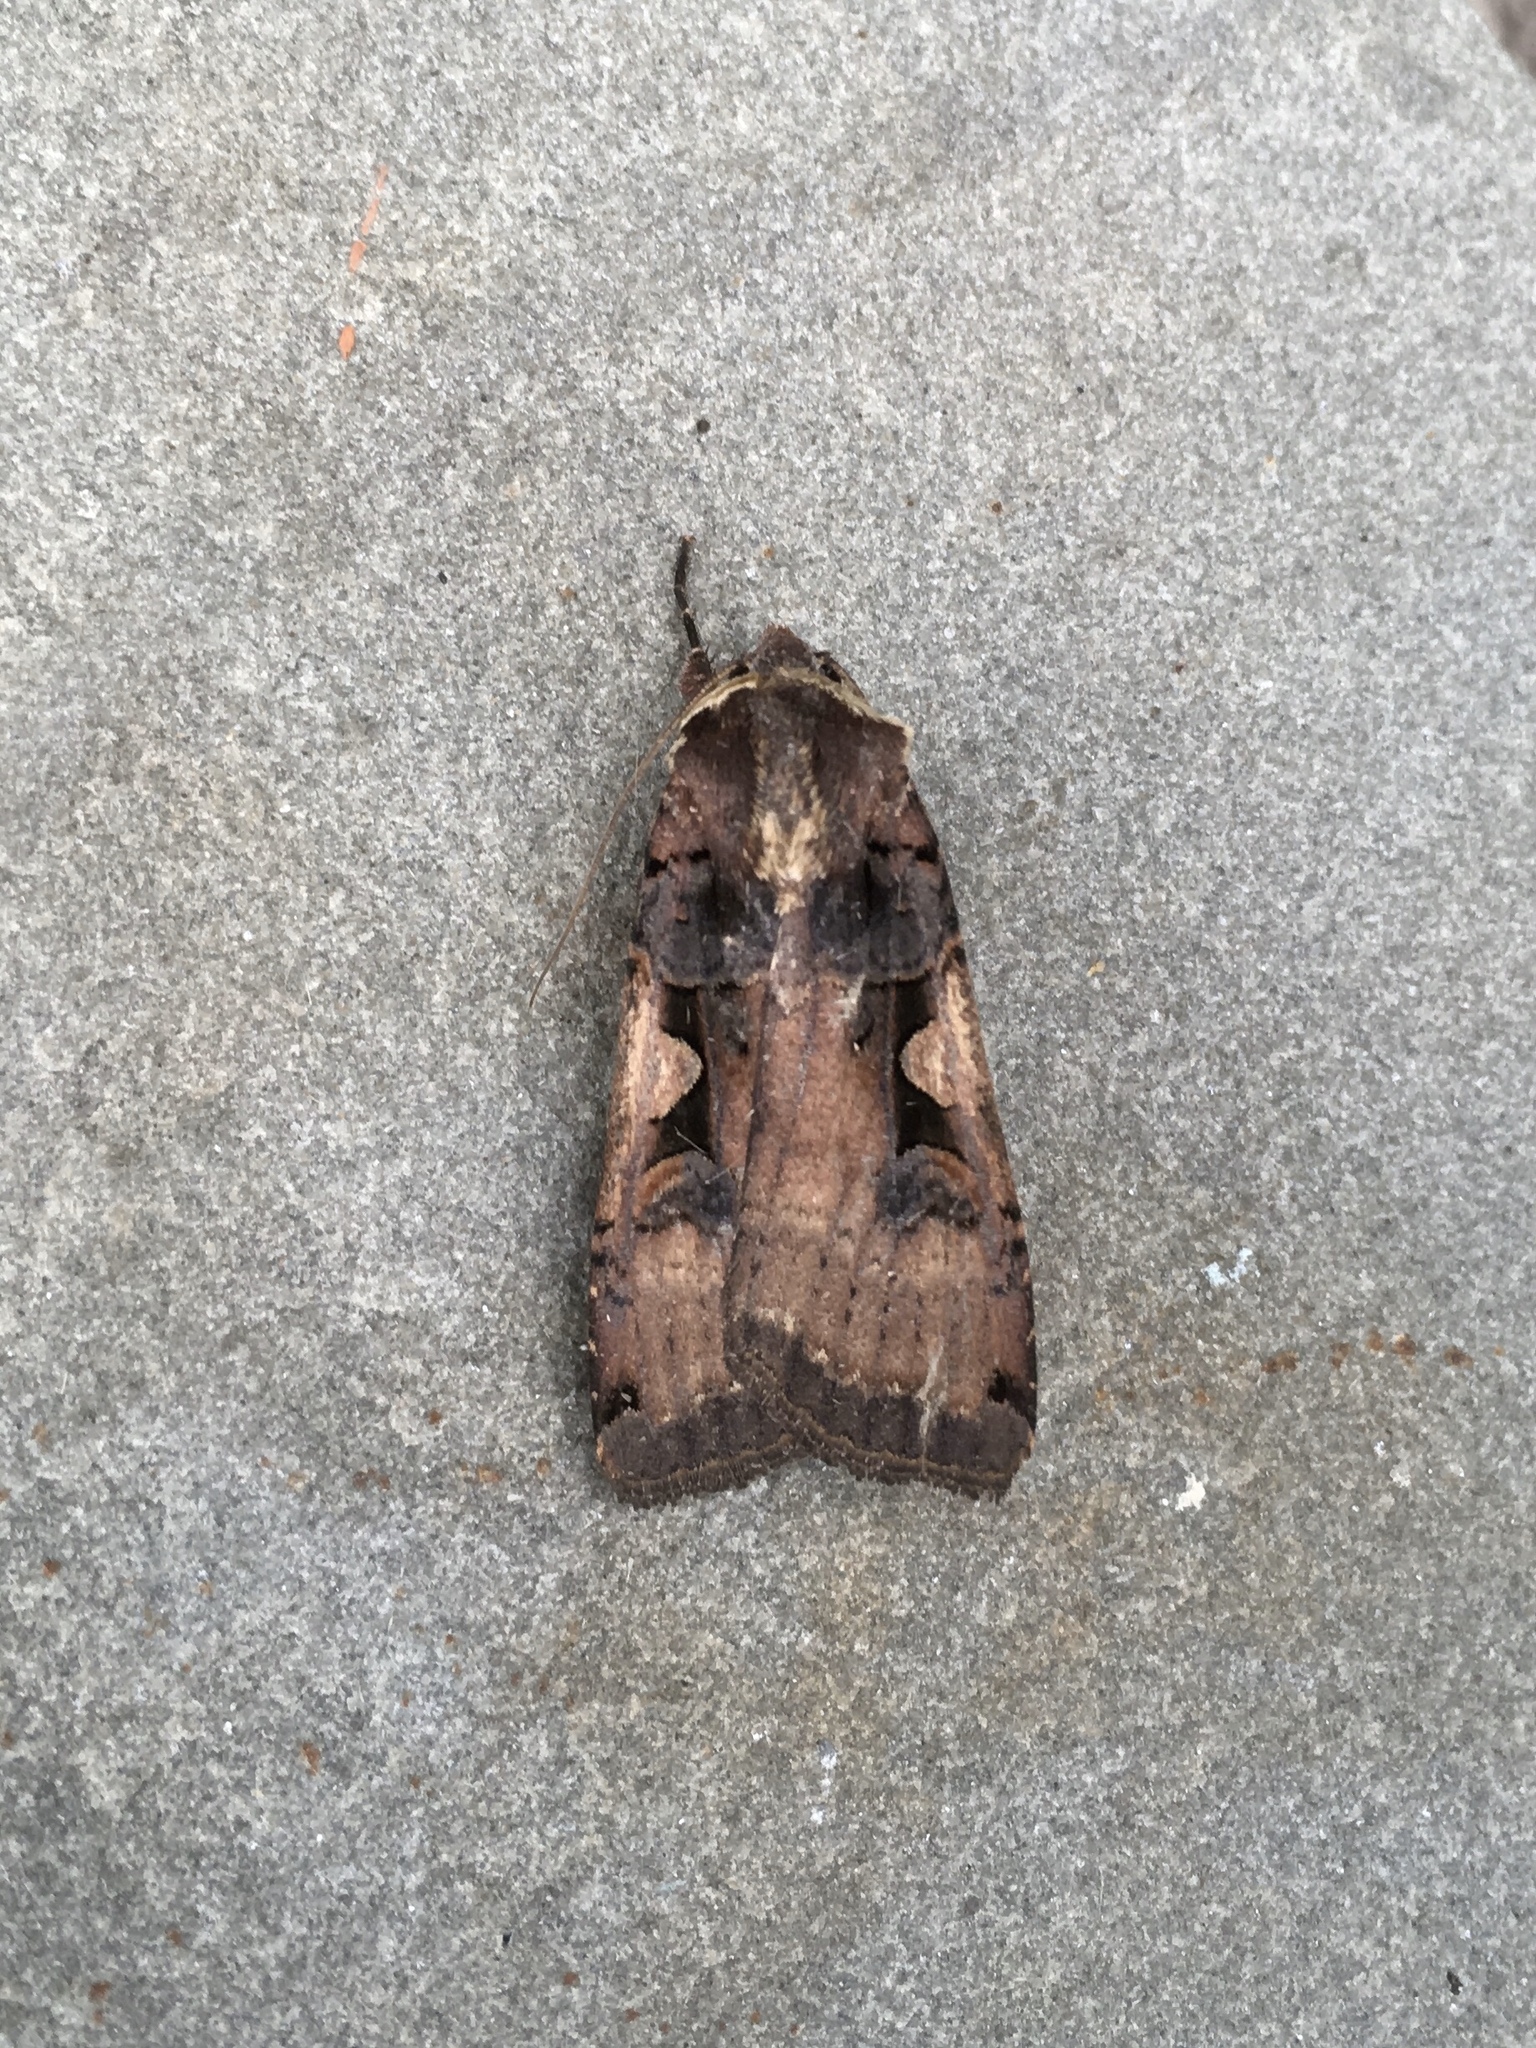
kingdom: Animalia
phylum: Arthropoda
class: Insecta
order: Lepidoptera
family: Noctuidae
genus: Xestia
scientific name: Xestia
